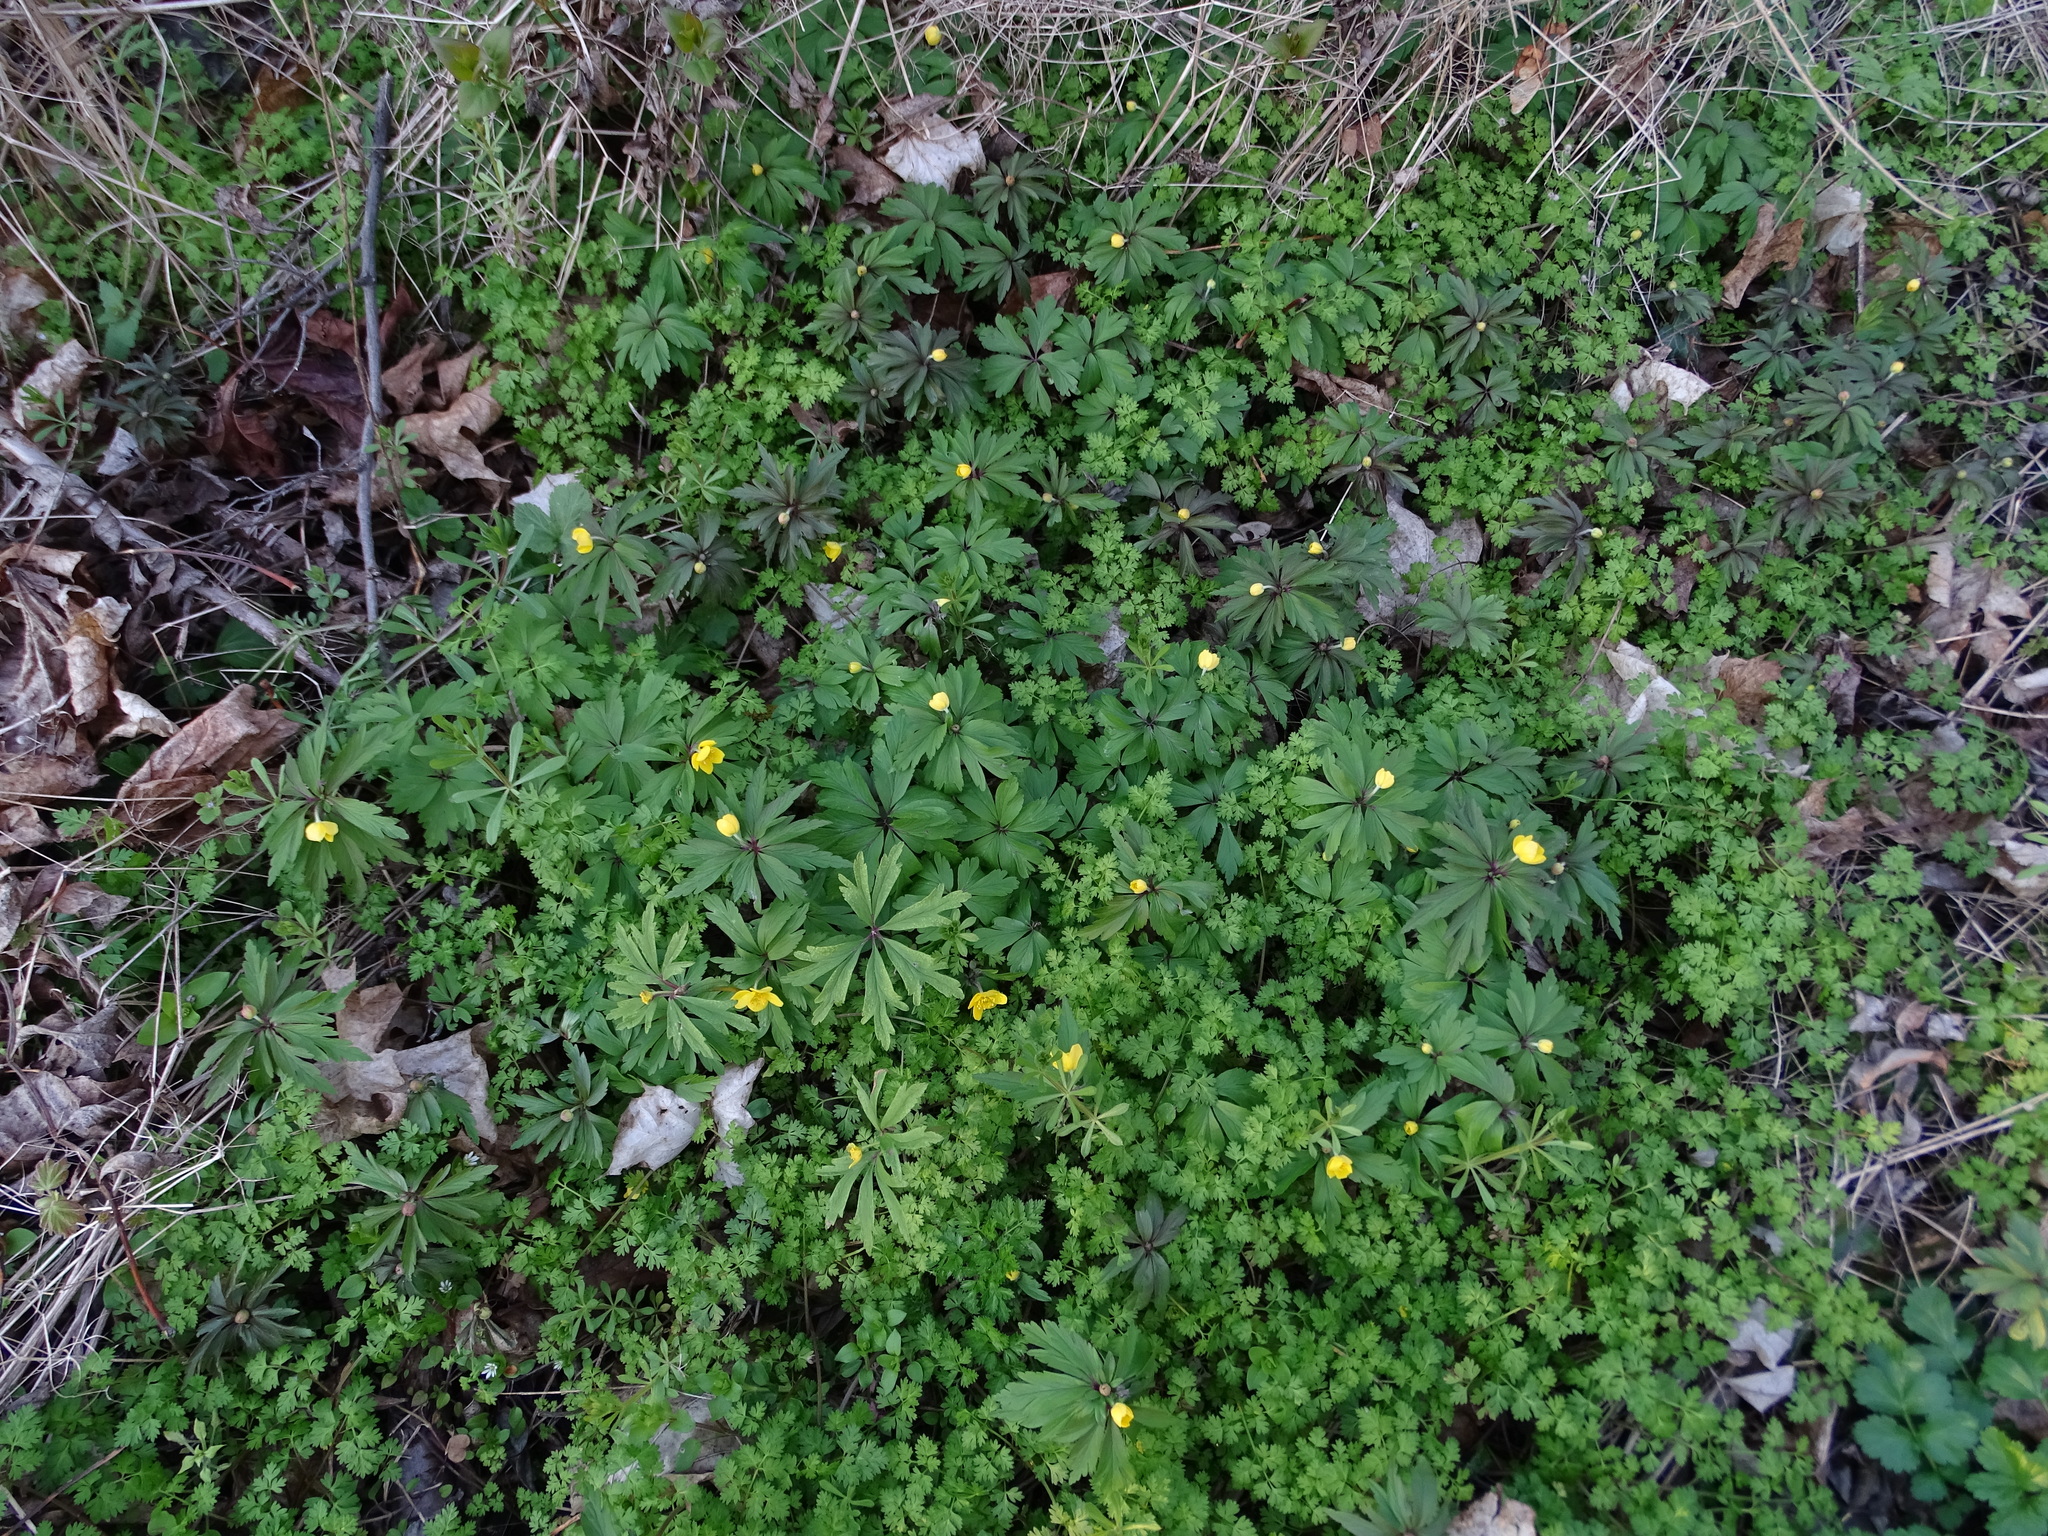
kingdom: Plantae
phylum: Tracheophyta
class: Magnoliopsida
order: Ranunculales
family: Ranunculaceae
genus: Anemone
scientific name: Anemone ranunculoides
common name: Yellow anemone
